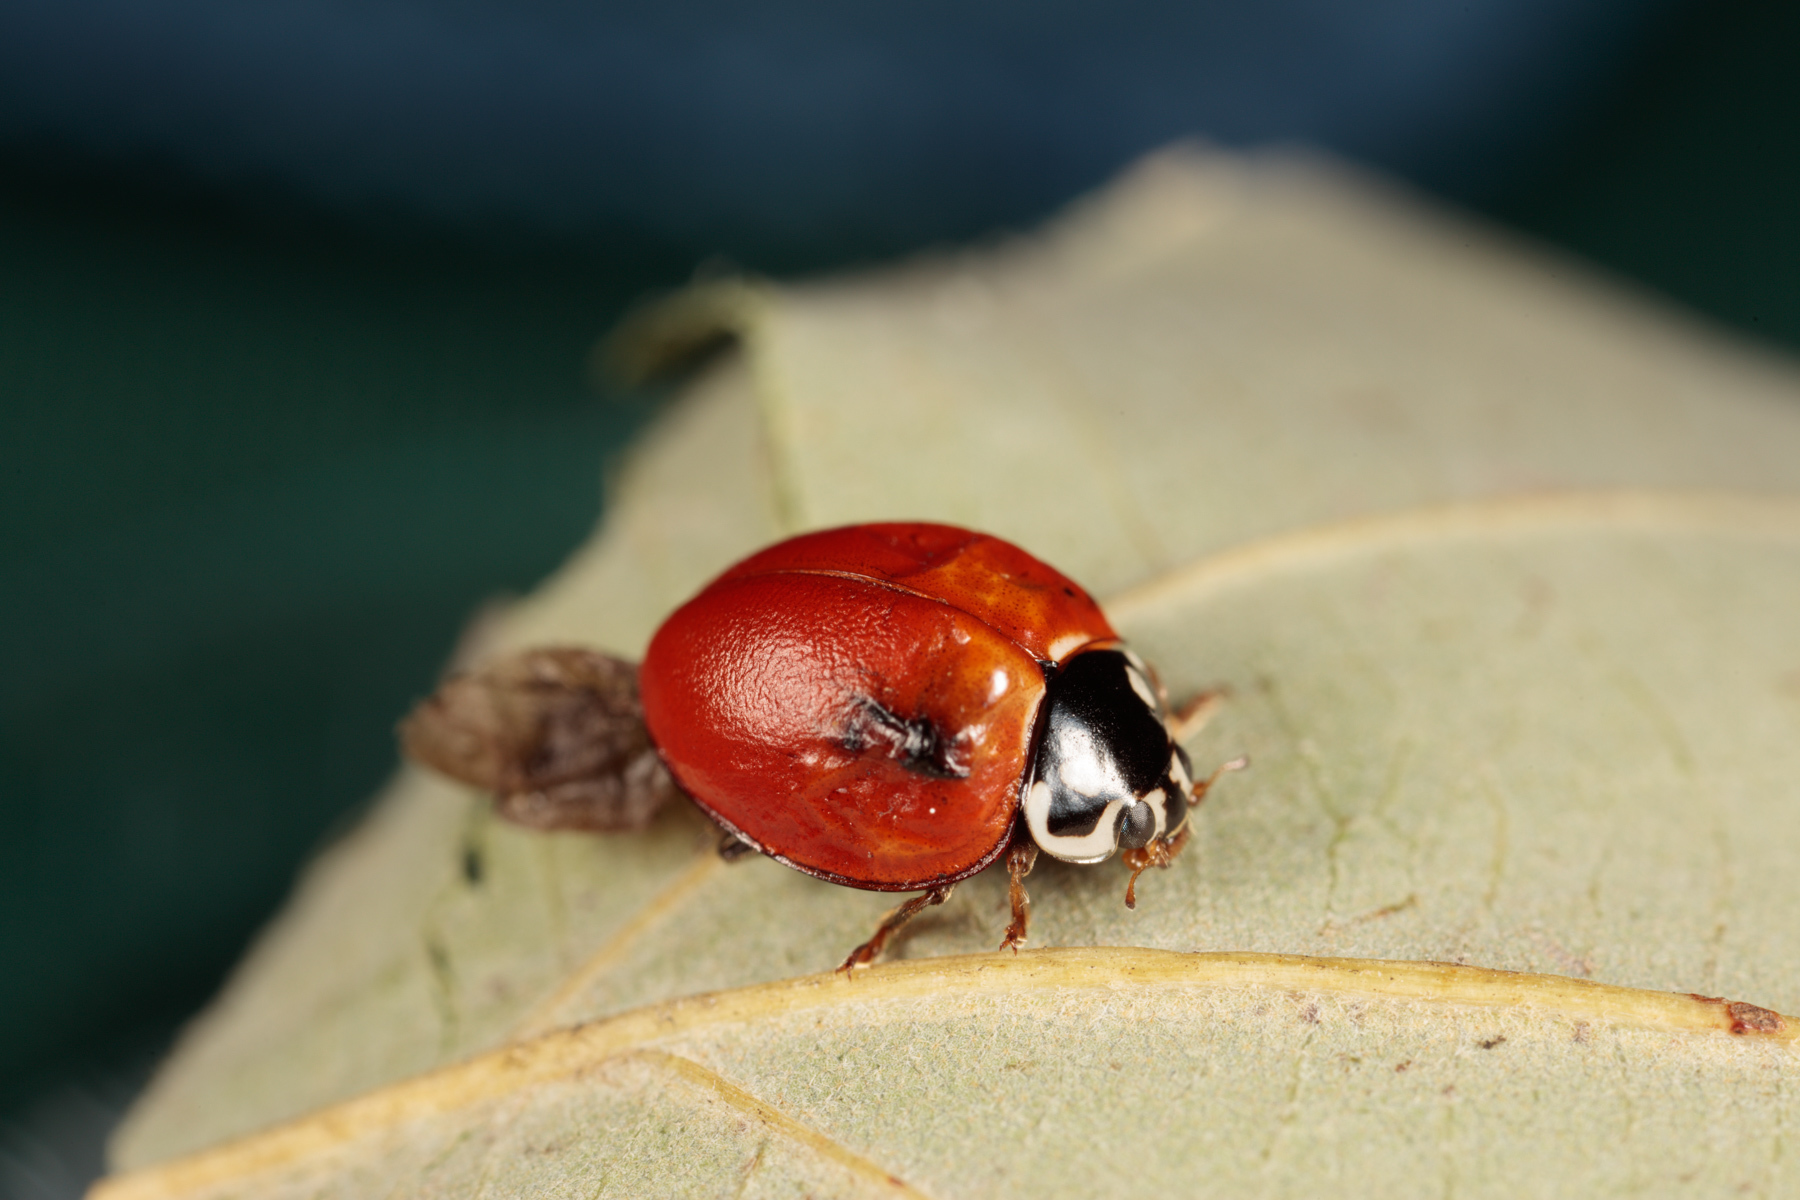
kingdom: Animalia
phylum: Arthropoda
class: Insecta
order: Coleoptera
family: Coccinellidae
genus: Cycloneda
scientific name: Cycloneda sanguinea
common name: Ladybird beetle
